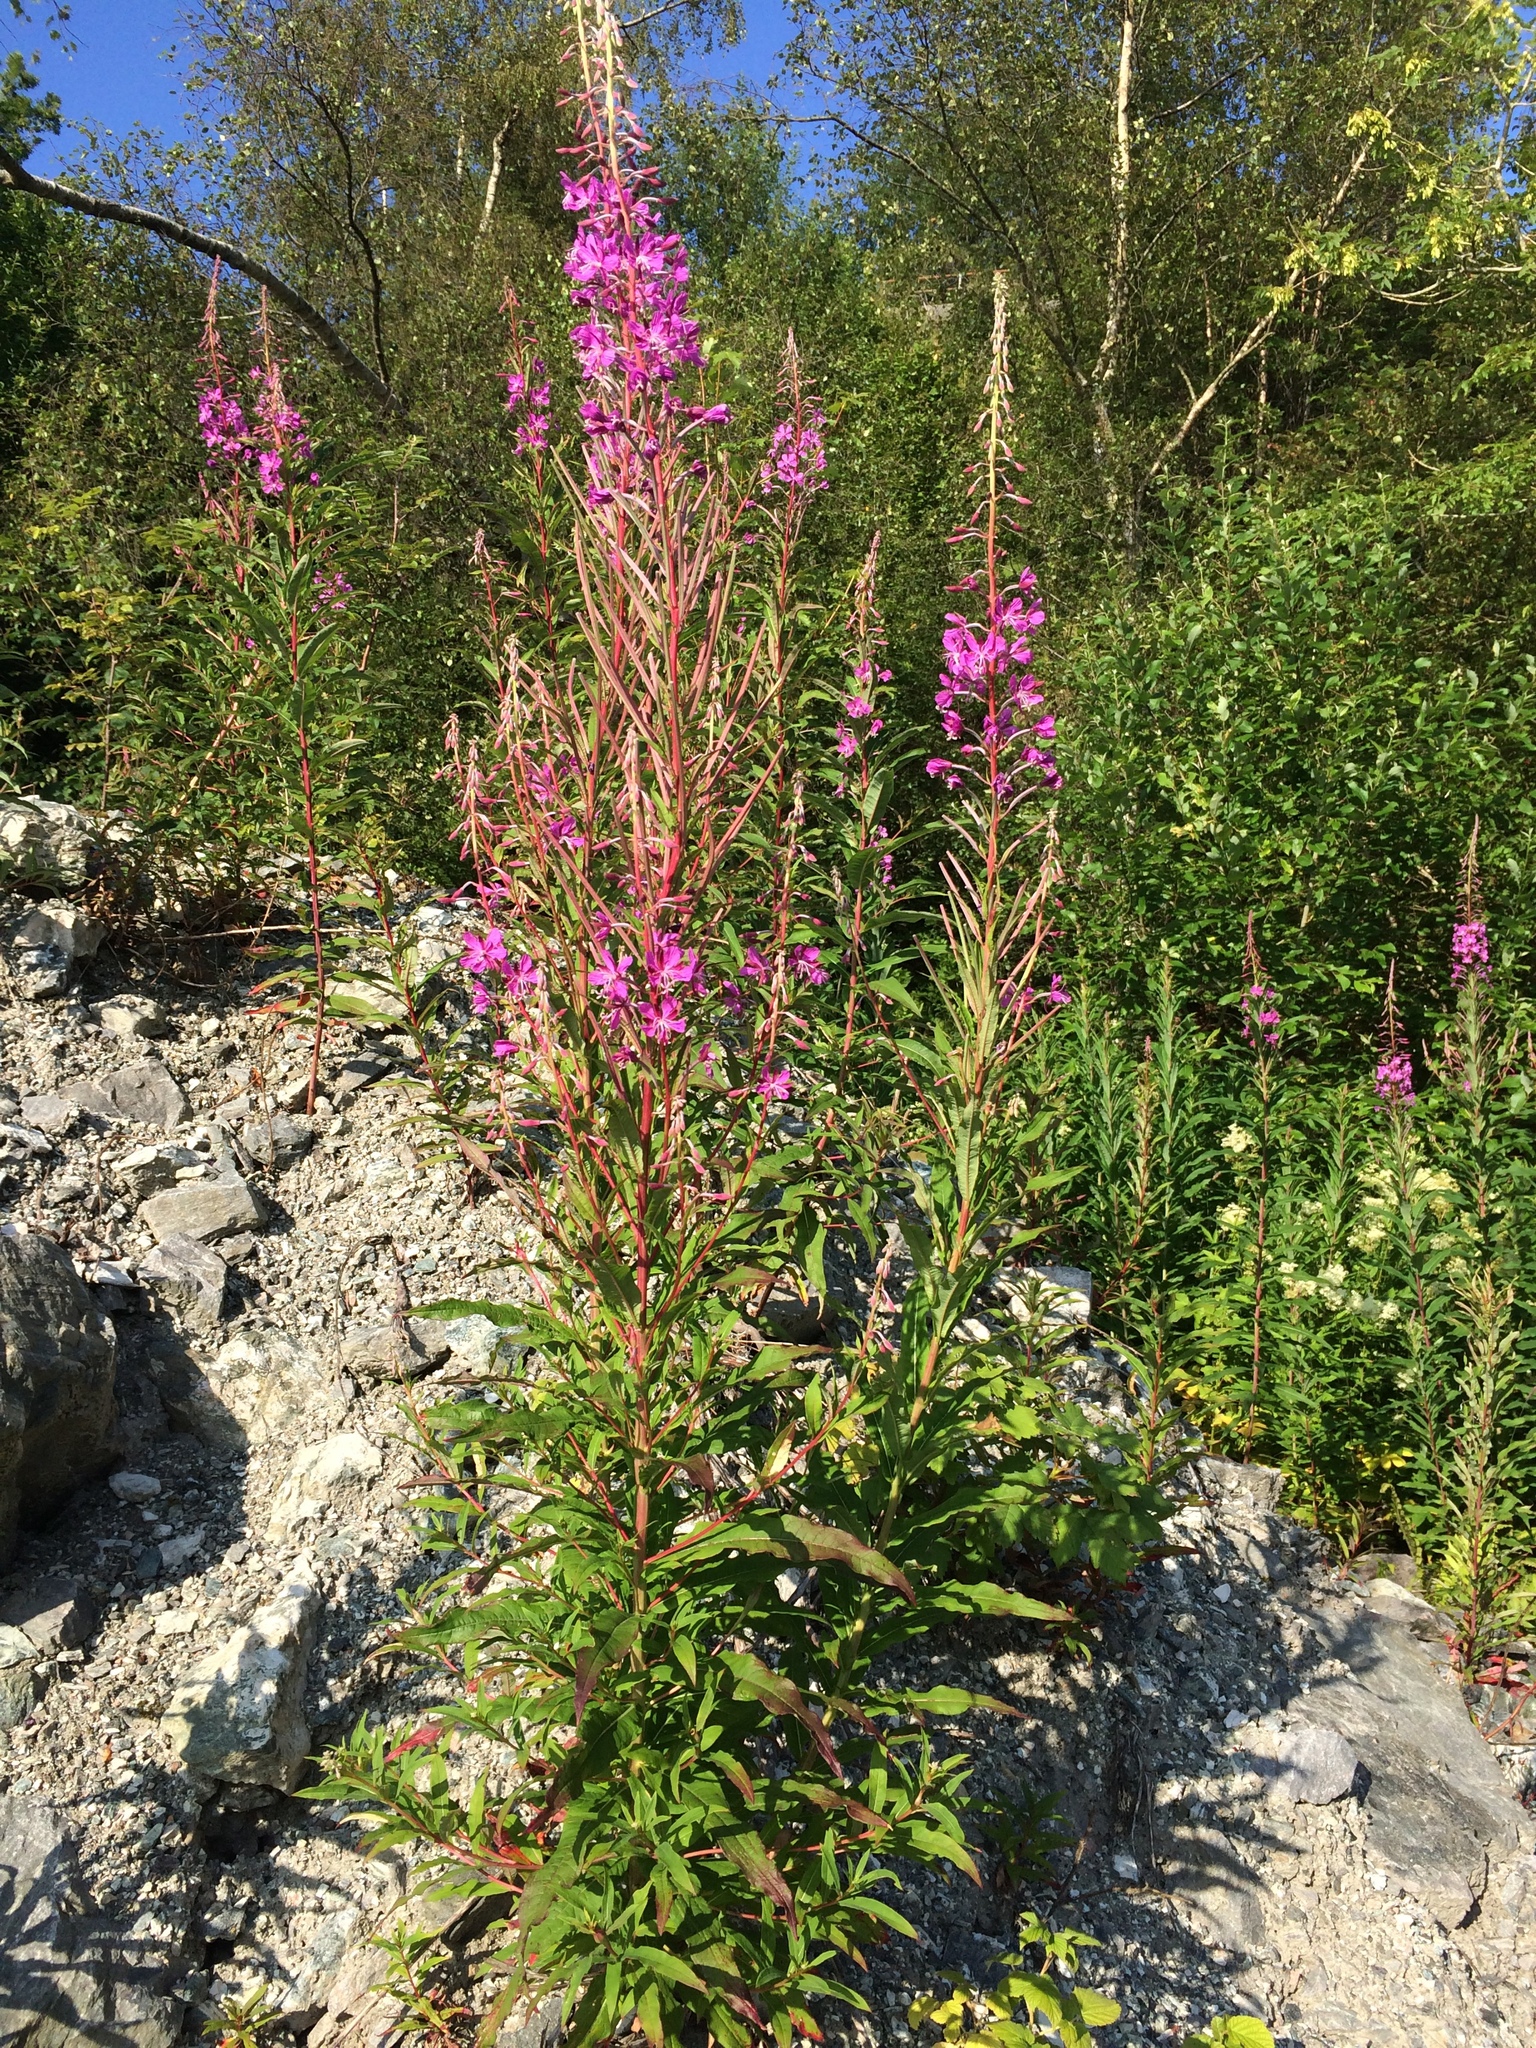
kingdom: Plantae
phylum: Tracheophyta
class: Magnoliopsida
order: Myrtales
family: Onagraceae
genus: Chamaenerion
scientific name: Chamaenerion angustifolium
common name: Fireweed
